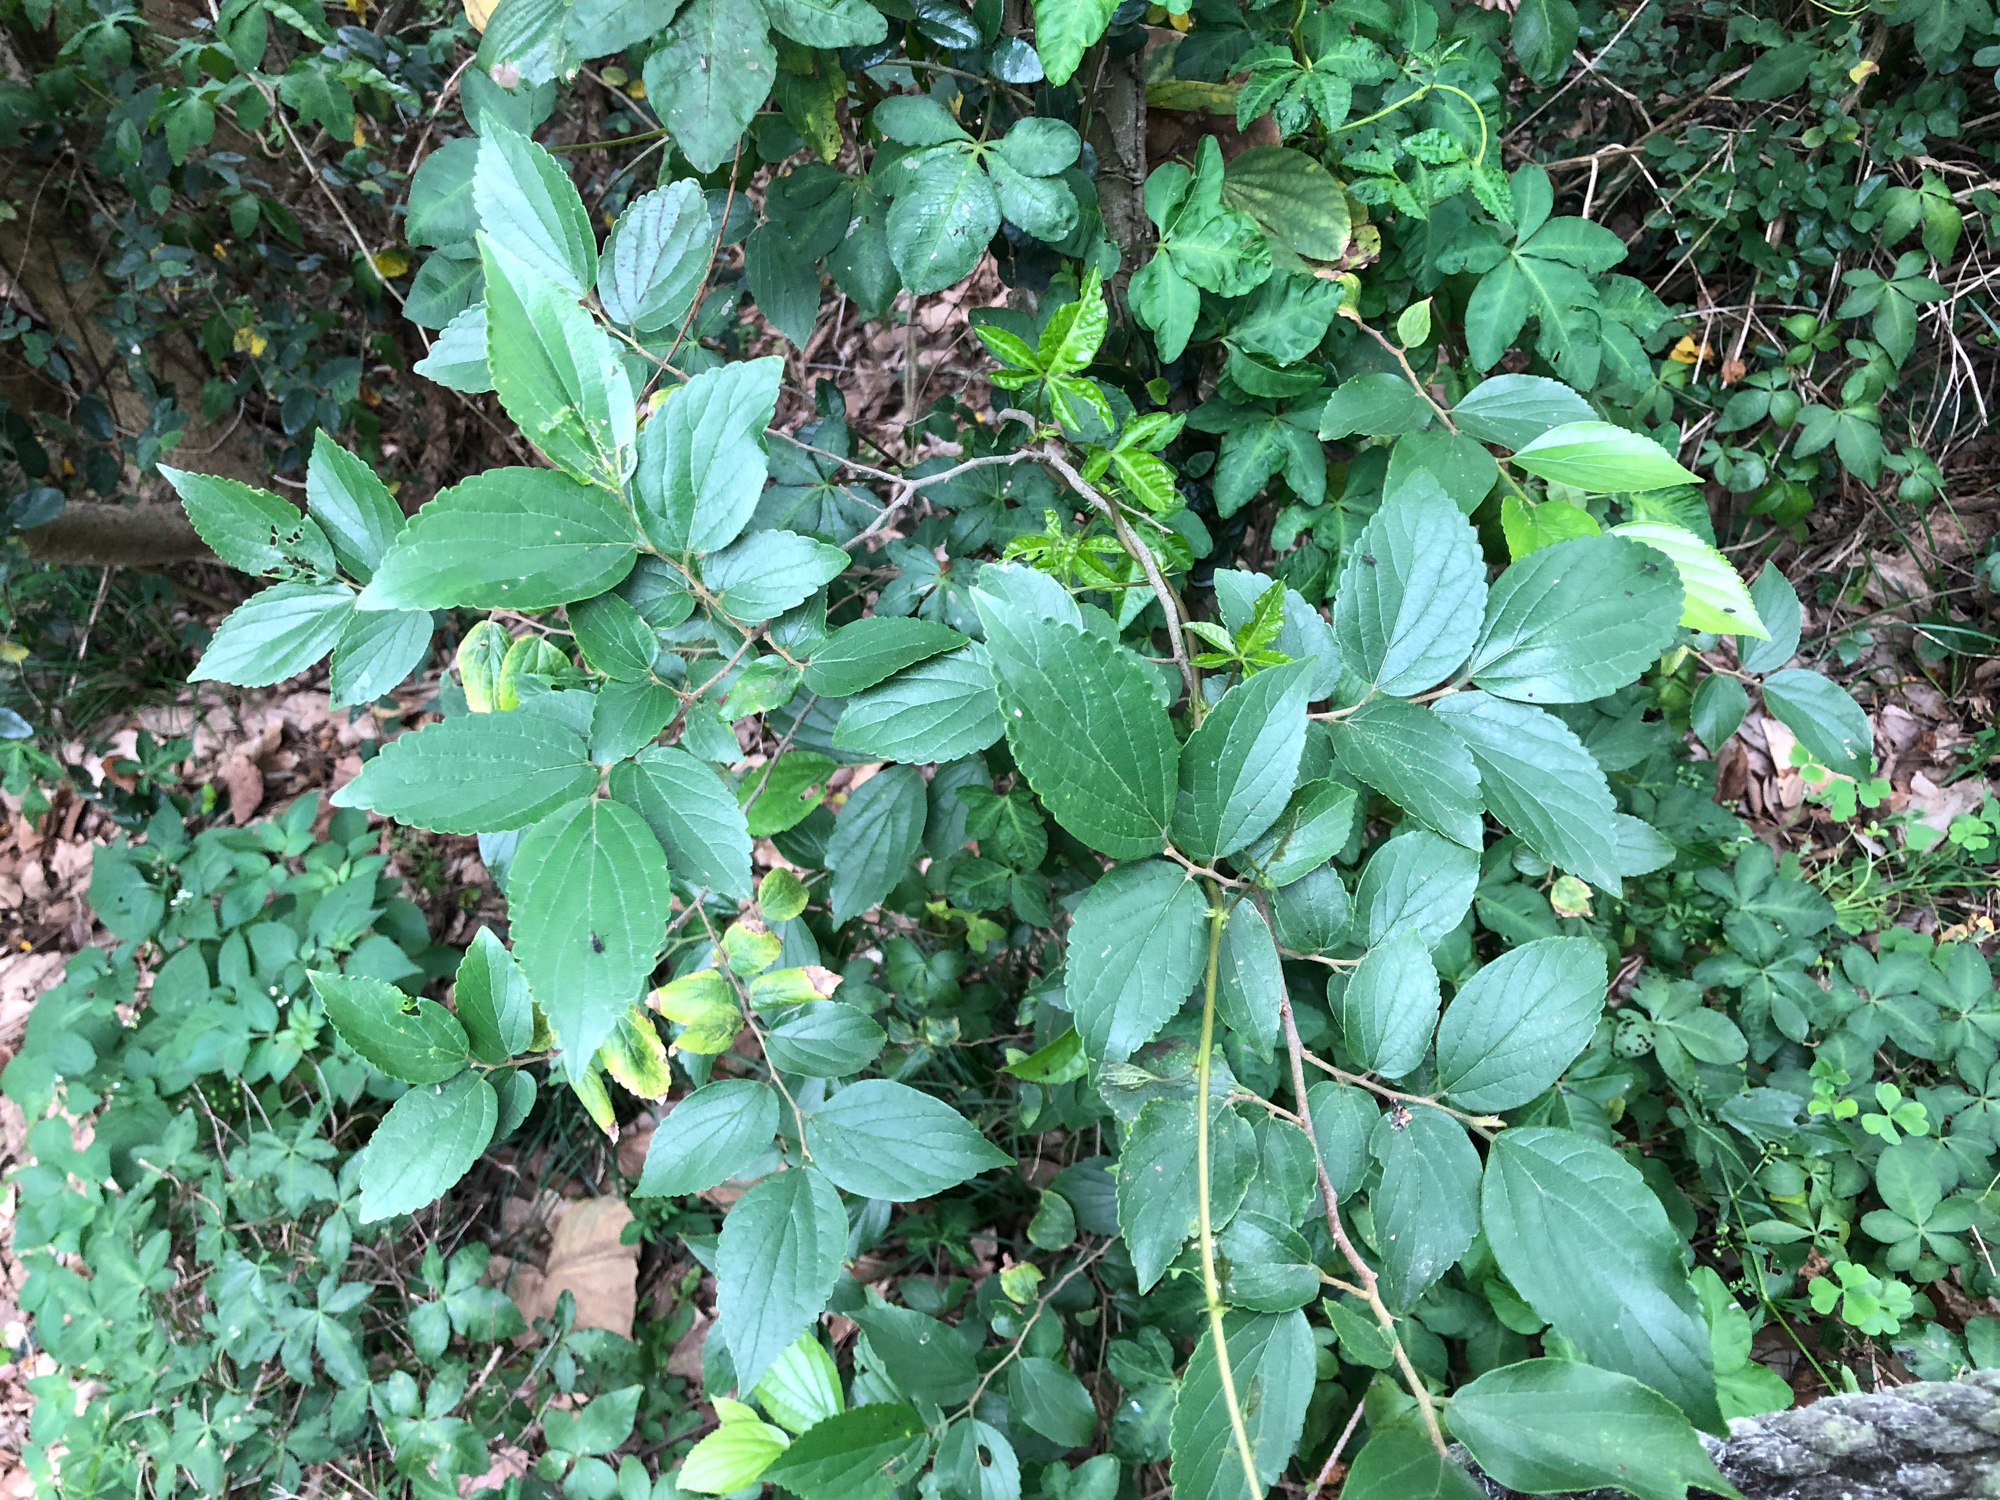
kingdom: Plantae
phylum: Tracheophyta
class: Magnoliopsida
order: Rosales
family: Cannabaceae
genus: Celtis
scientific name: Celtis sinensis
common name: Chinese hackberry
